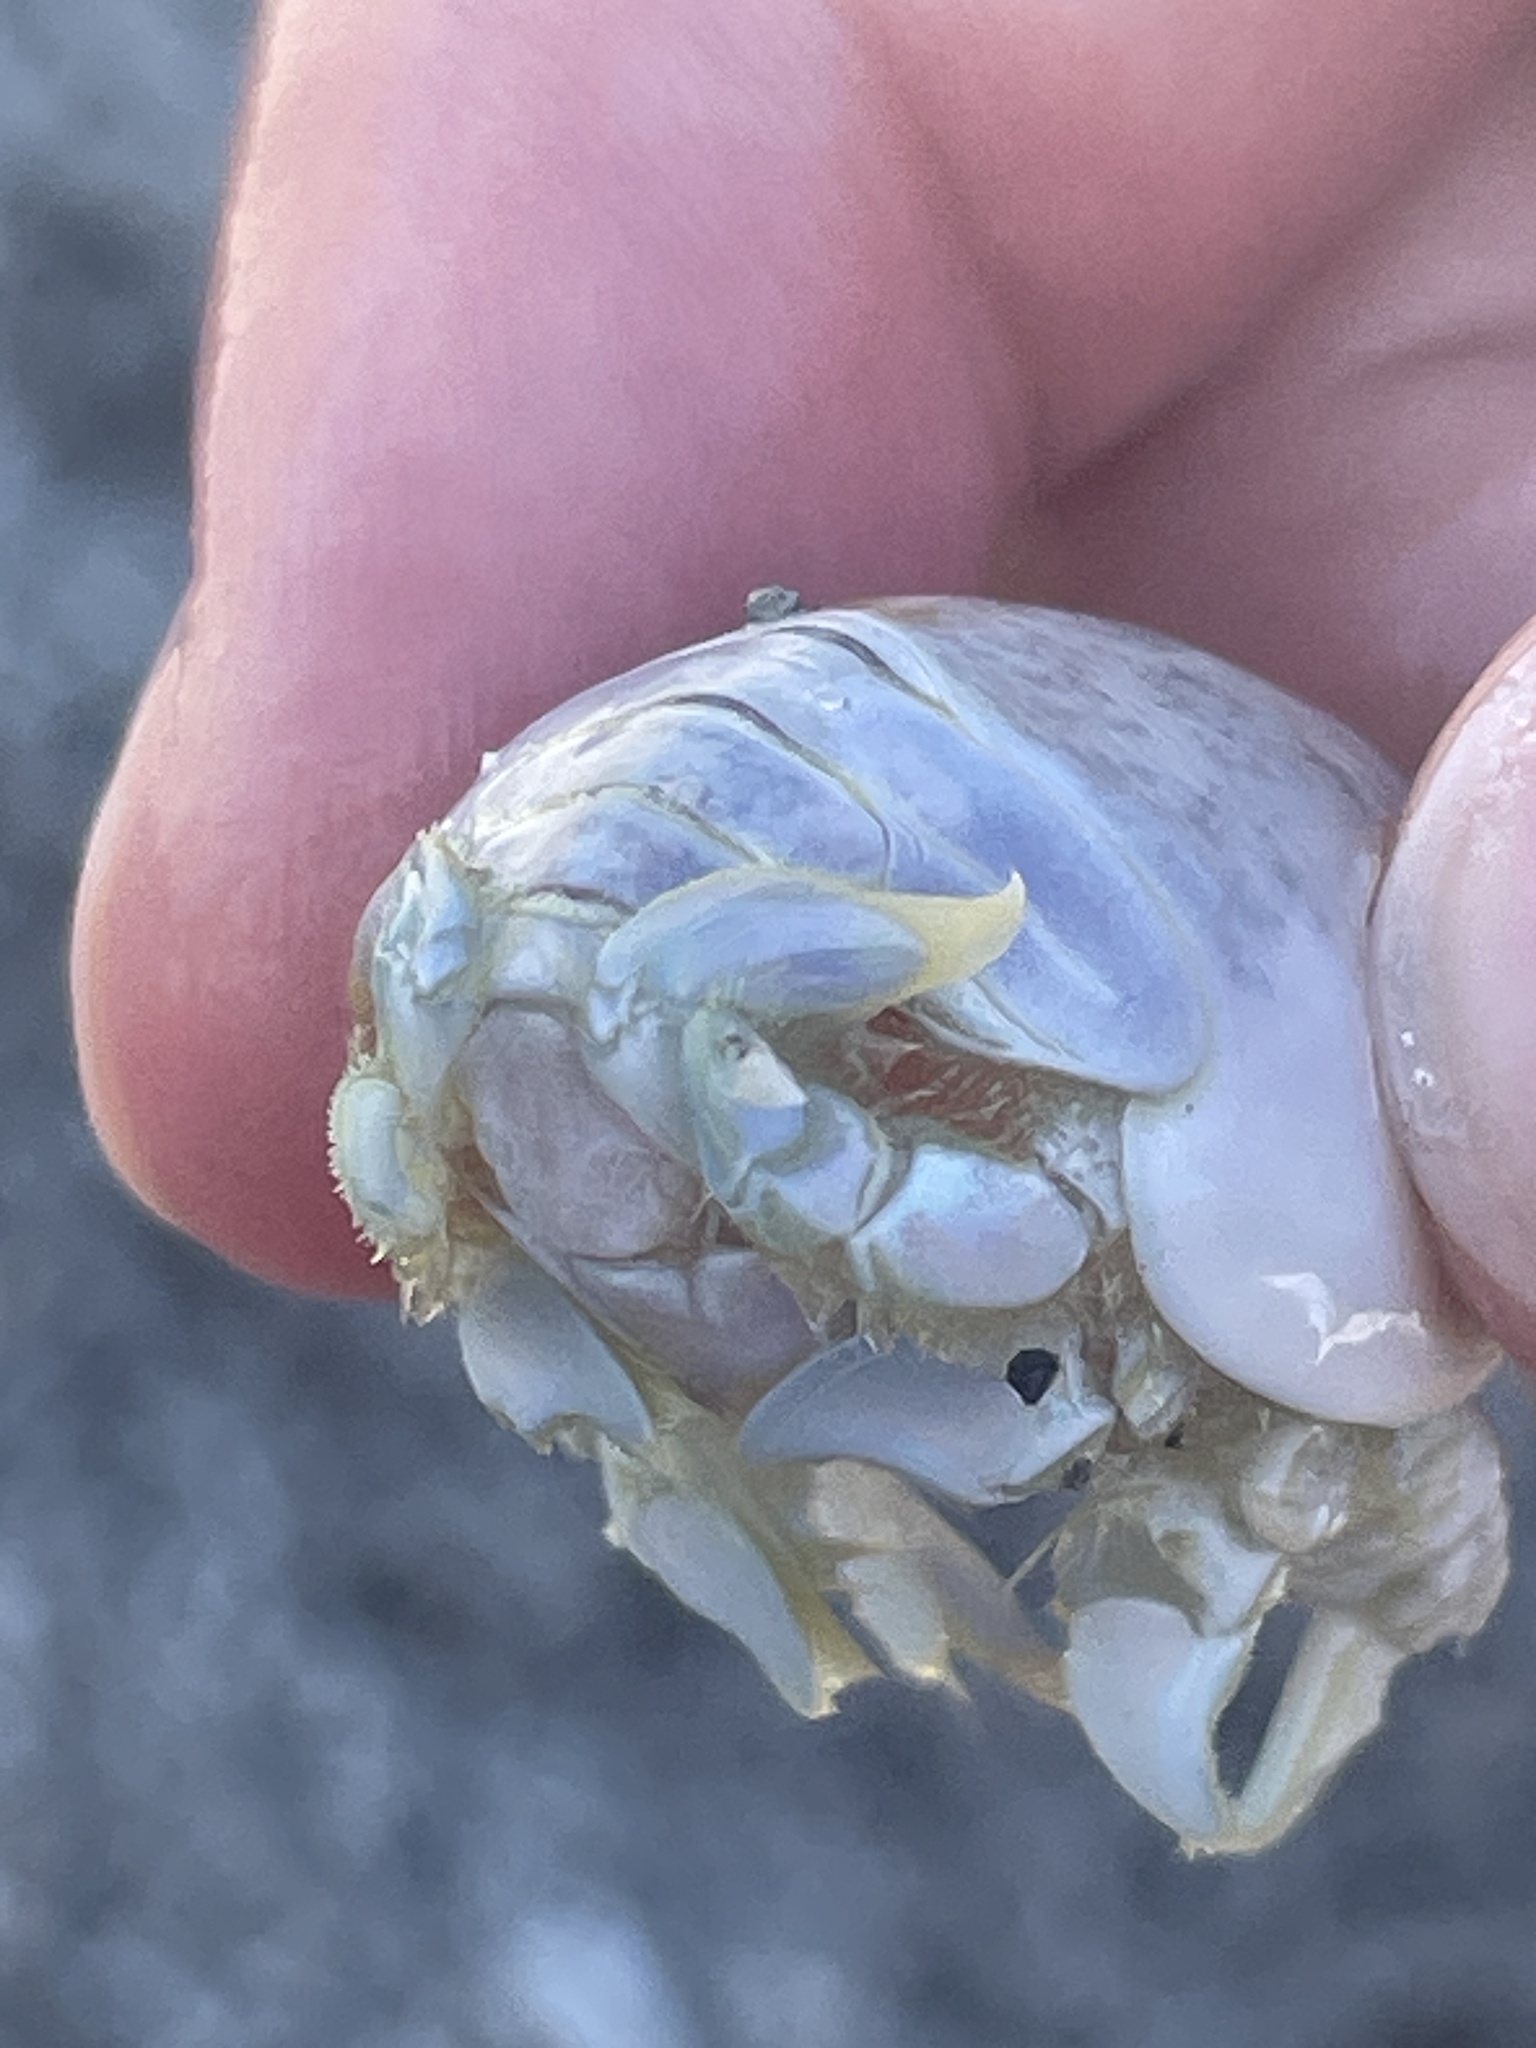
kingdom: Animalia
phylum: Arthropoda
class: Malacostraca
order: Decapoda
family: Hippidae
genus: Emerita
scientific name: Emerita talpoida
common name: Atlantic sand crab
